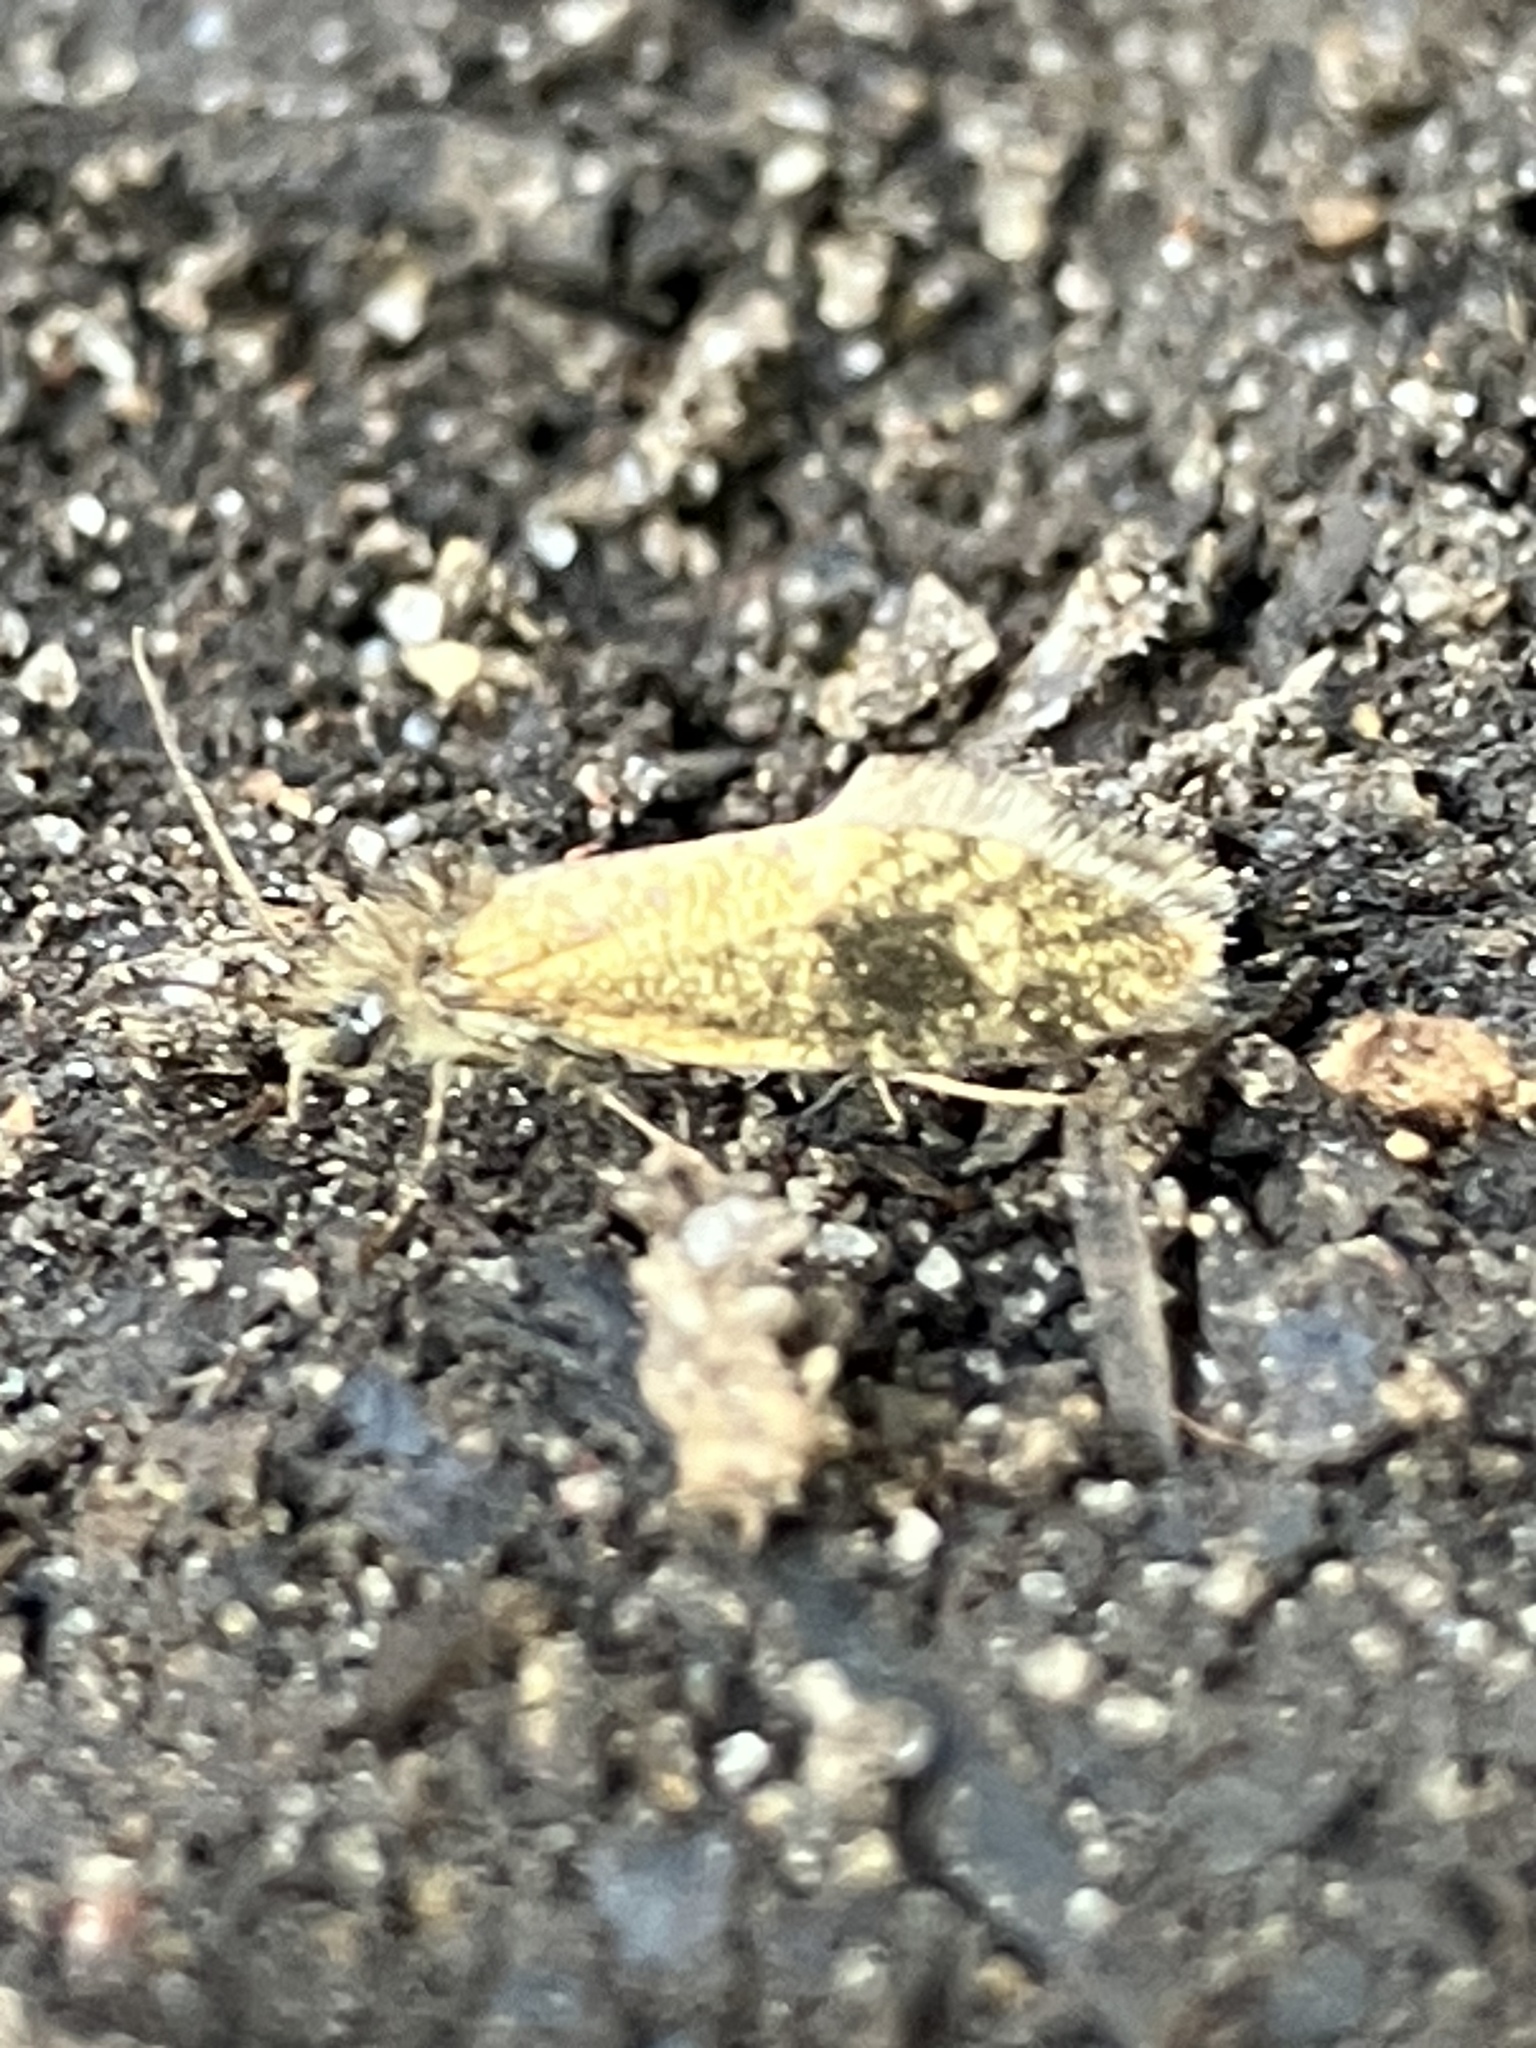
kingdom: Animalia
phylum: Arthropoda
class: Insecta
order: Lepidoptera
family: Eriocraniidae
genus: Dyseriocrania
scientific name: Dyseriocrania subpurpurella
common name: Common oak purple
